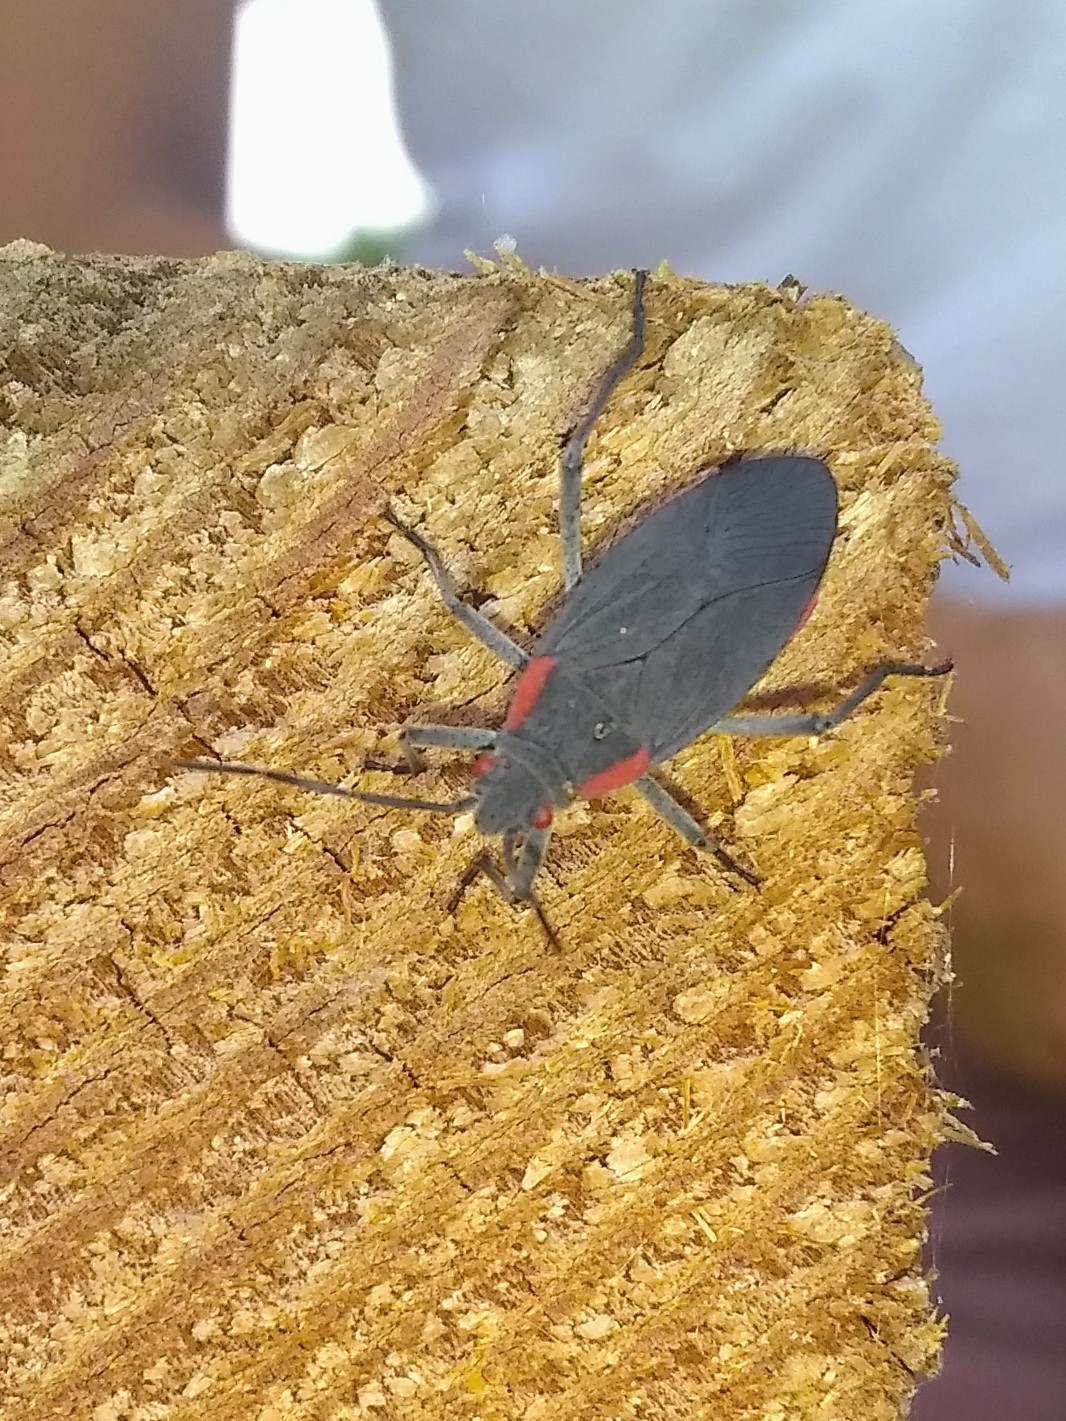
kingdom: Animalia
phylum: Arthropoda
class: Insecta
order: Hemiptera
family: Rhopalidae
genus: Jadera
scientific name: Jadera haematoloma
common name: Red-shouldered bug
